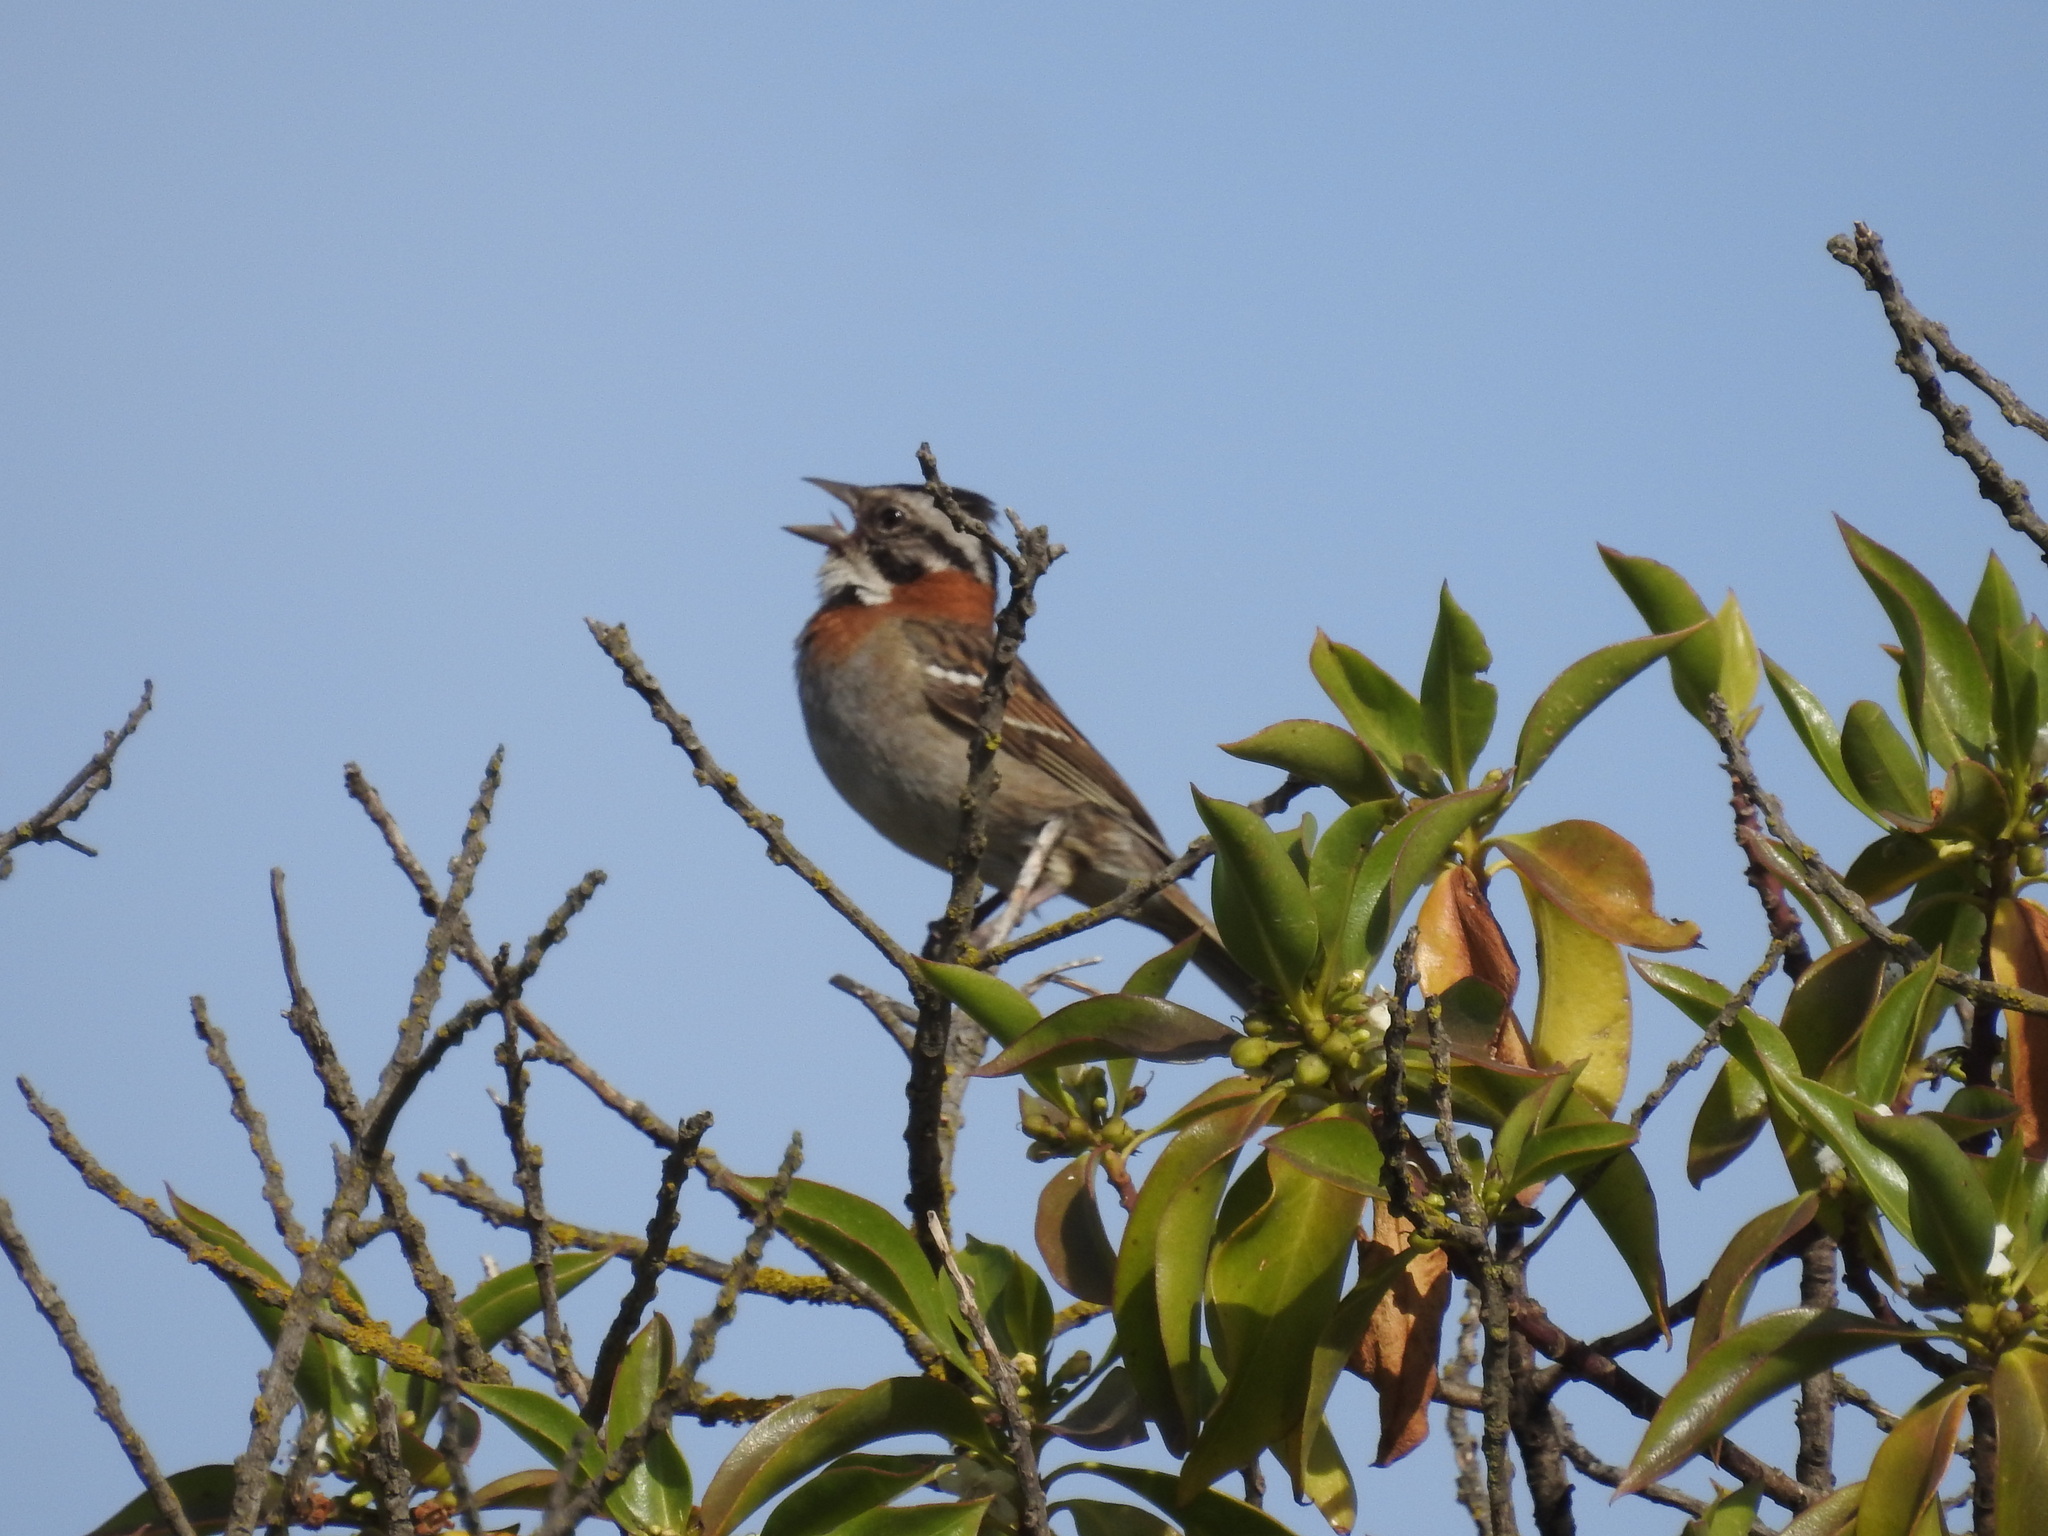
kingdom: Animalia
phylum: Chordata
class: Aves
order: Passeriformes
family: Passerellidae
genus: Zonotrichia
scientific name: Zonotrichia capensis
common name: Rufous-collared sparrow
